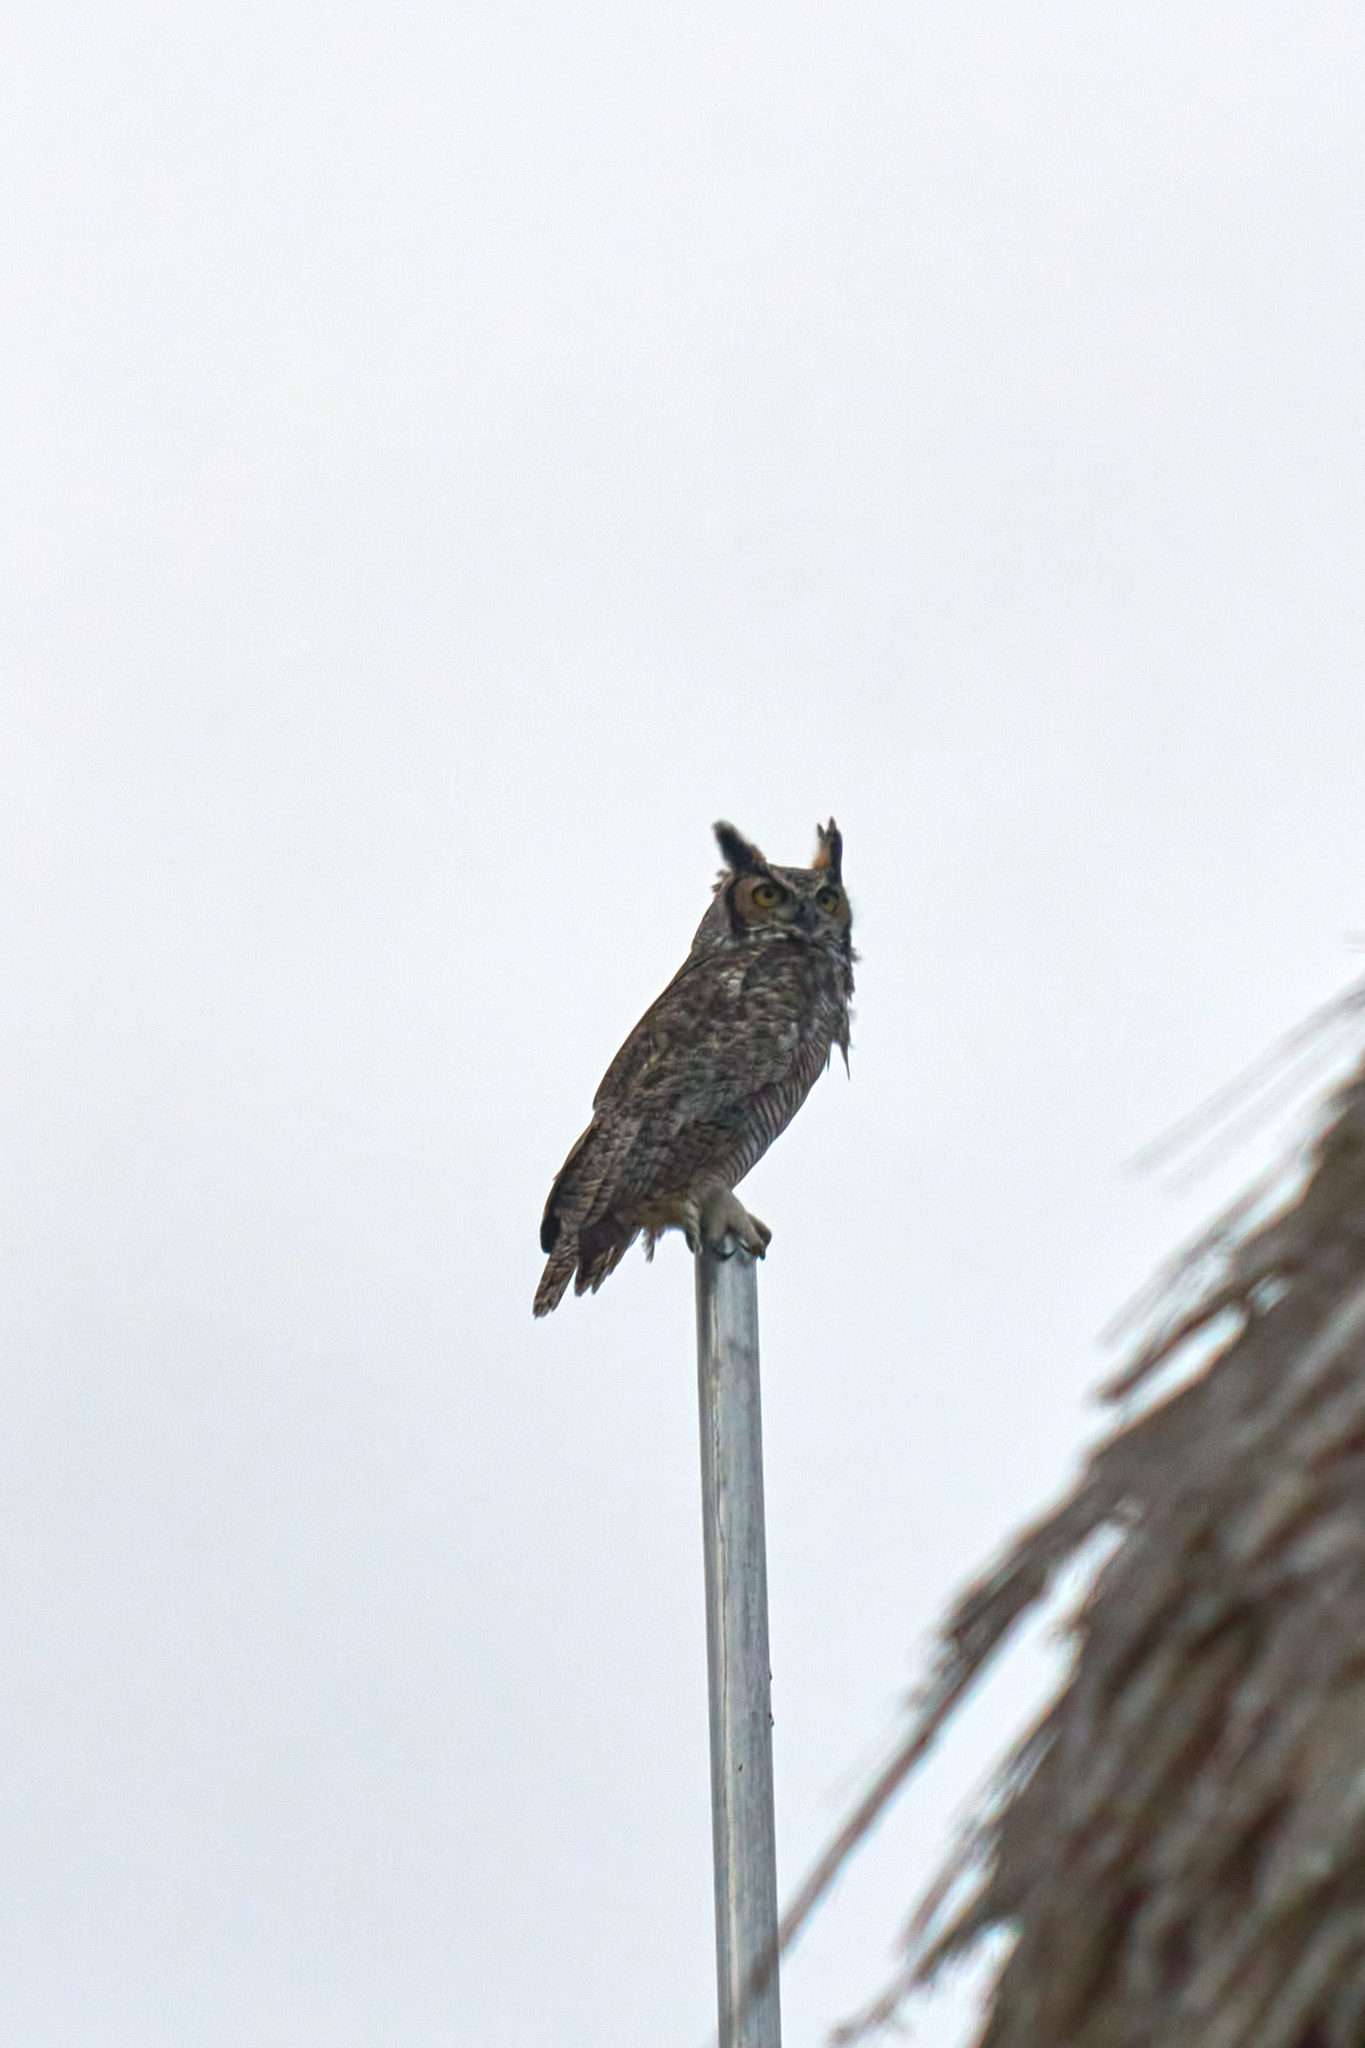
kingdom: Animalia
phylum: Chordata
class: Aves
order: Strigiformes
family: Strigidae
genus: Bubo
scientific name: Bubo virginianus
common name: Great horned owl
